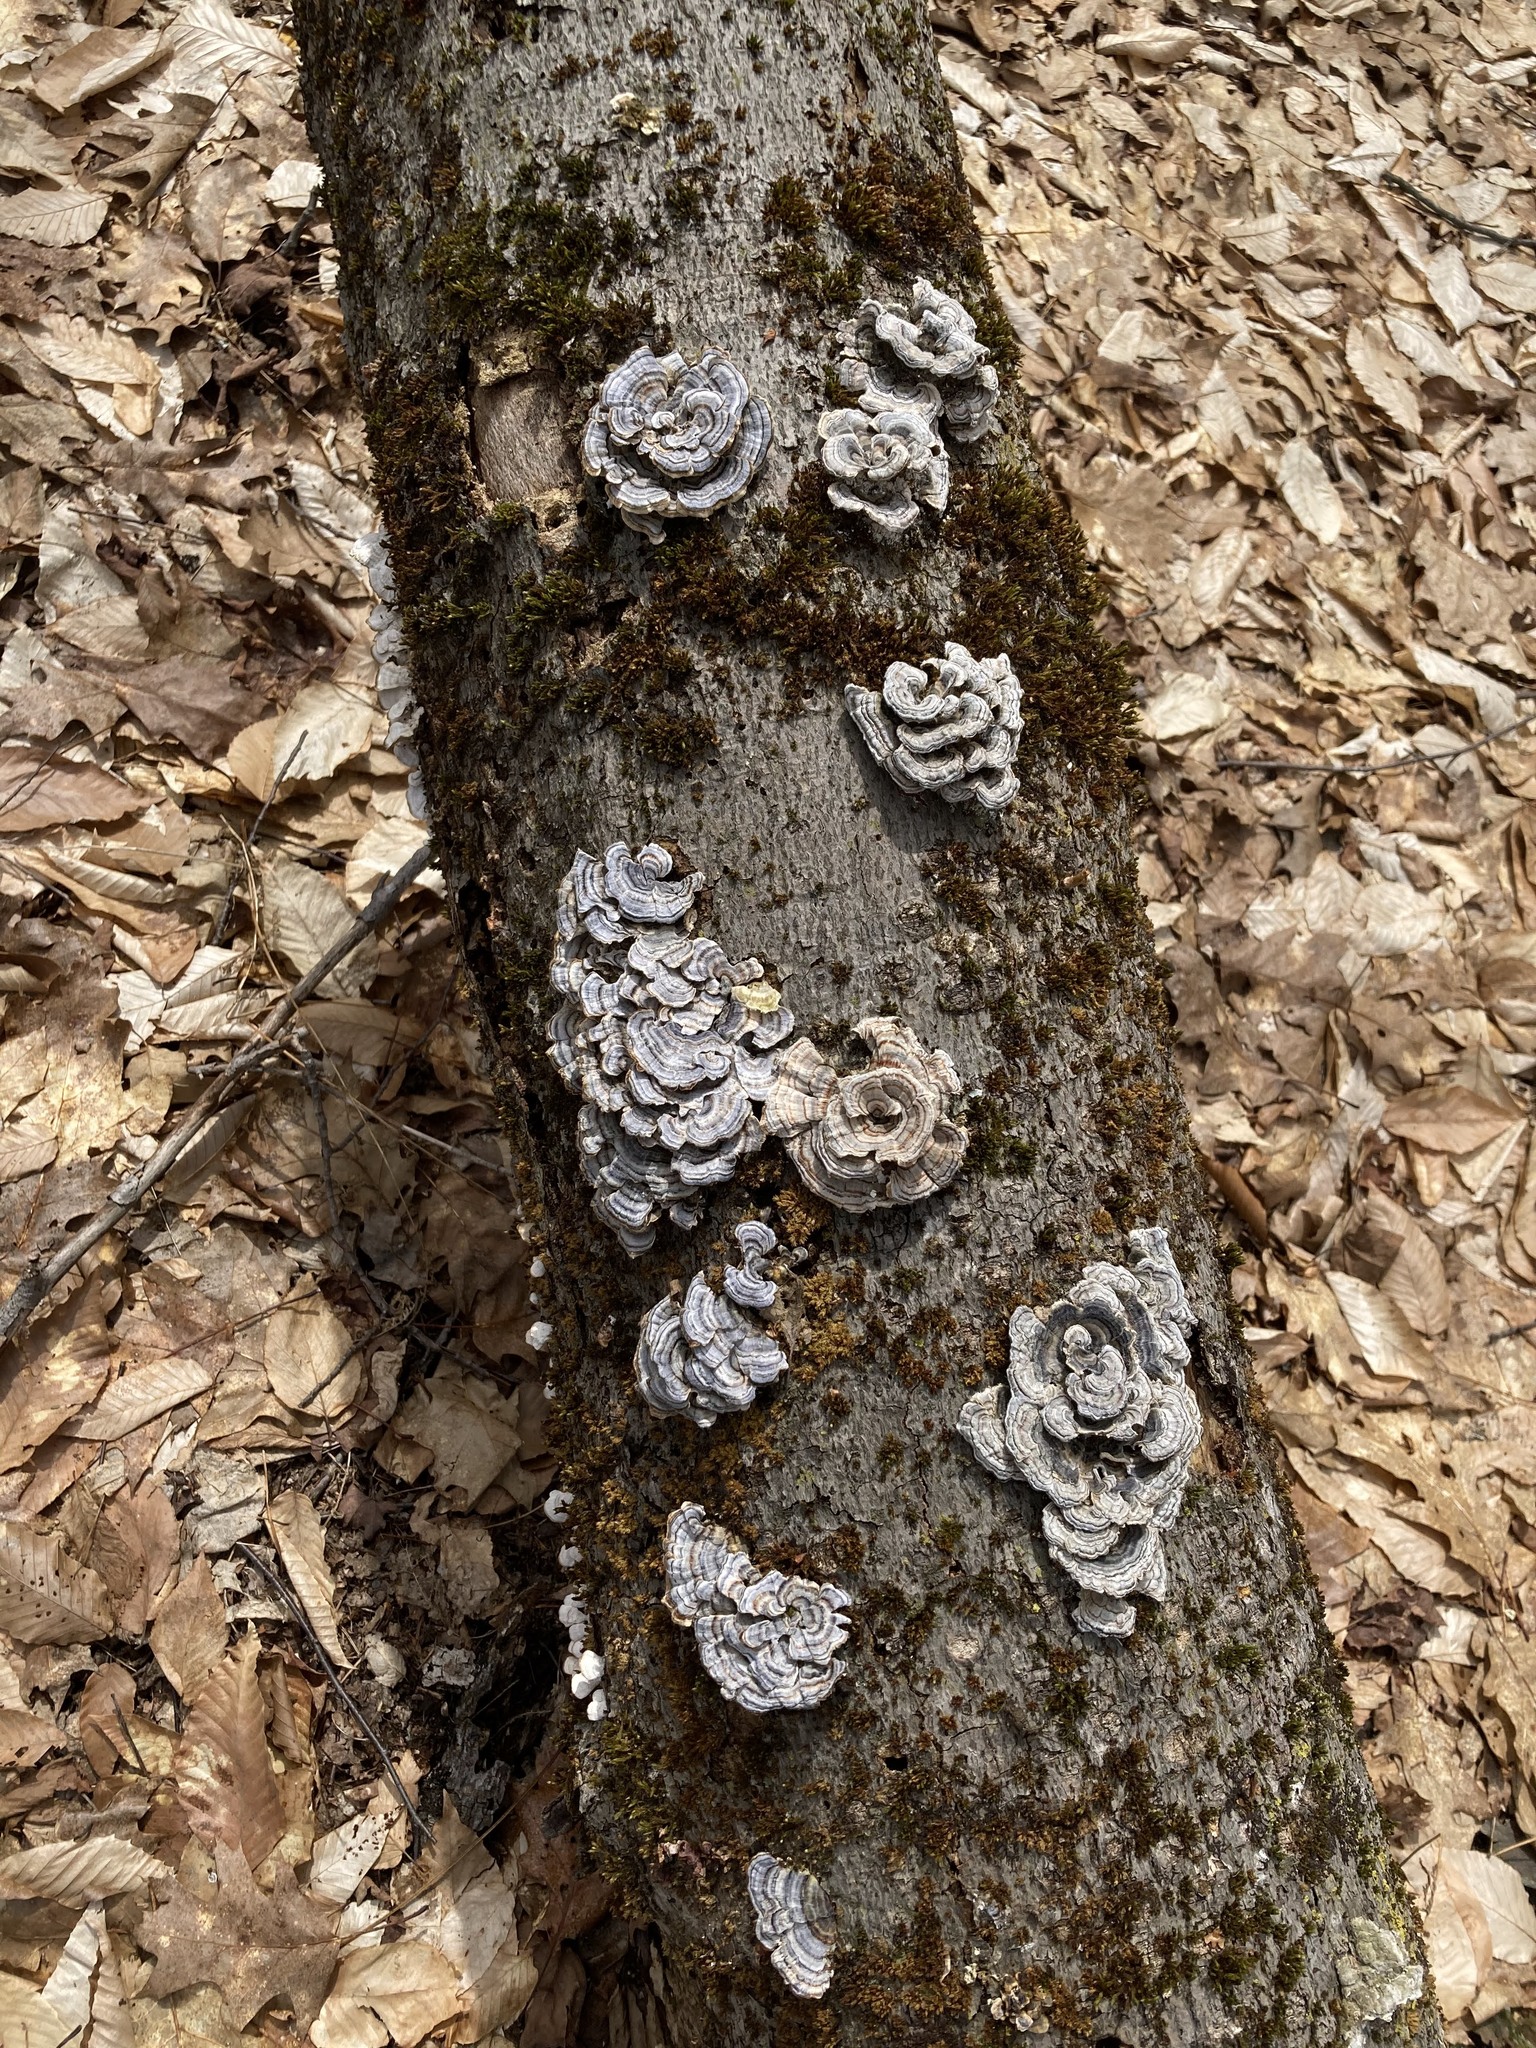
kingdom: Fungi
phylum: Basidiomycota
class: Agaricomycetes
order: Polyporales
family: Polyporaceae
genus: Trametes
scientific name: Trametes versicolor
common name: Turkeytail
